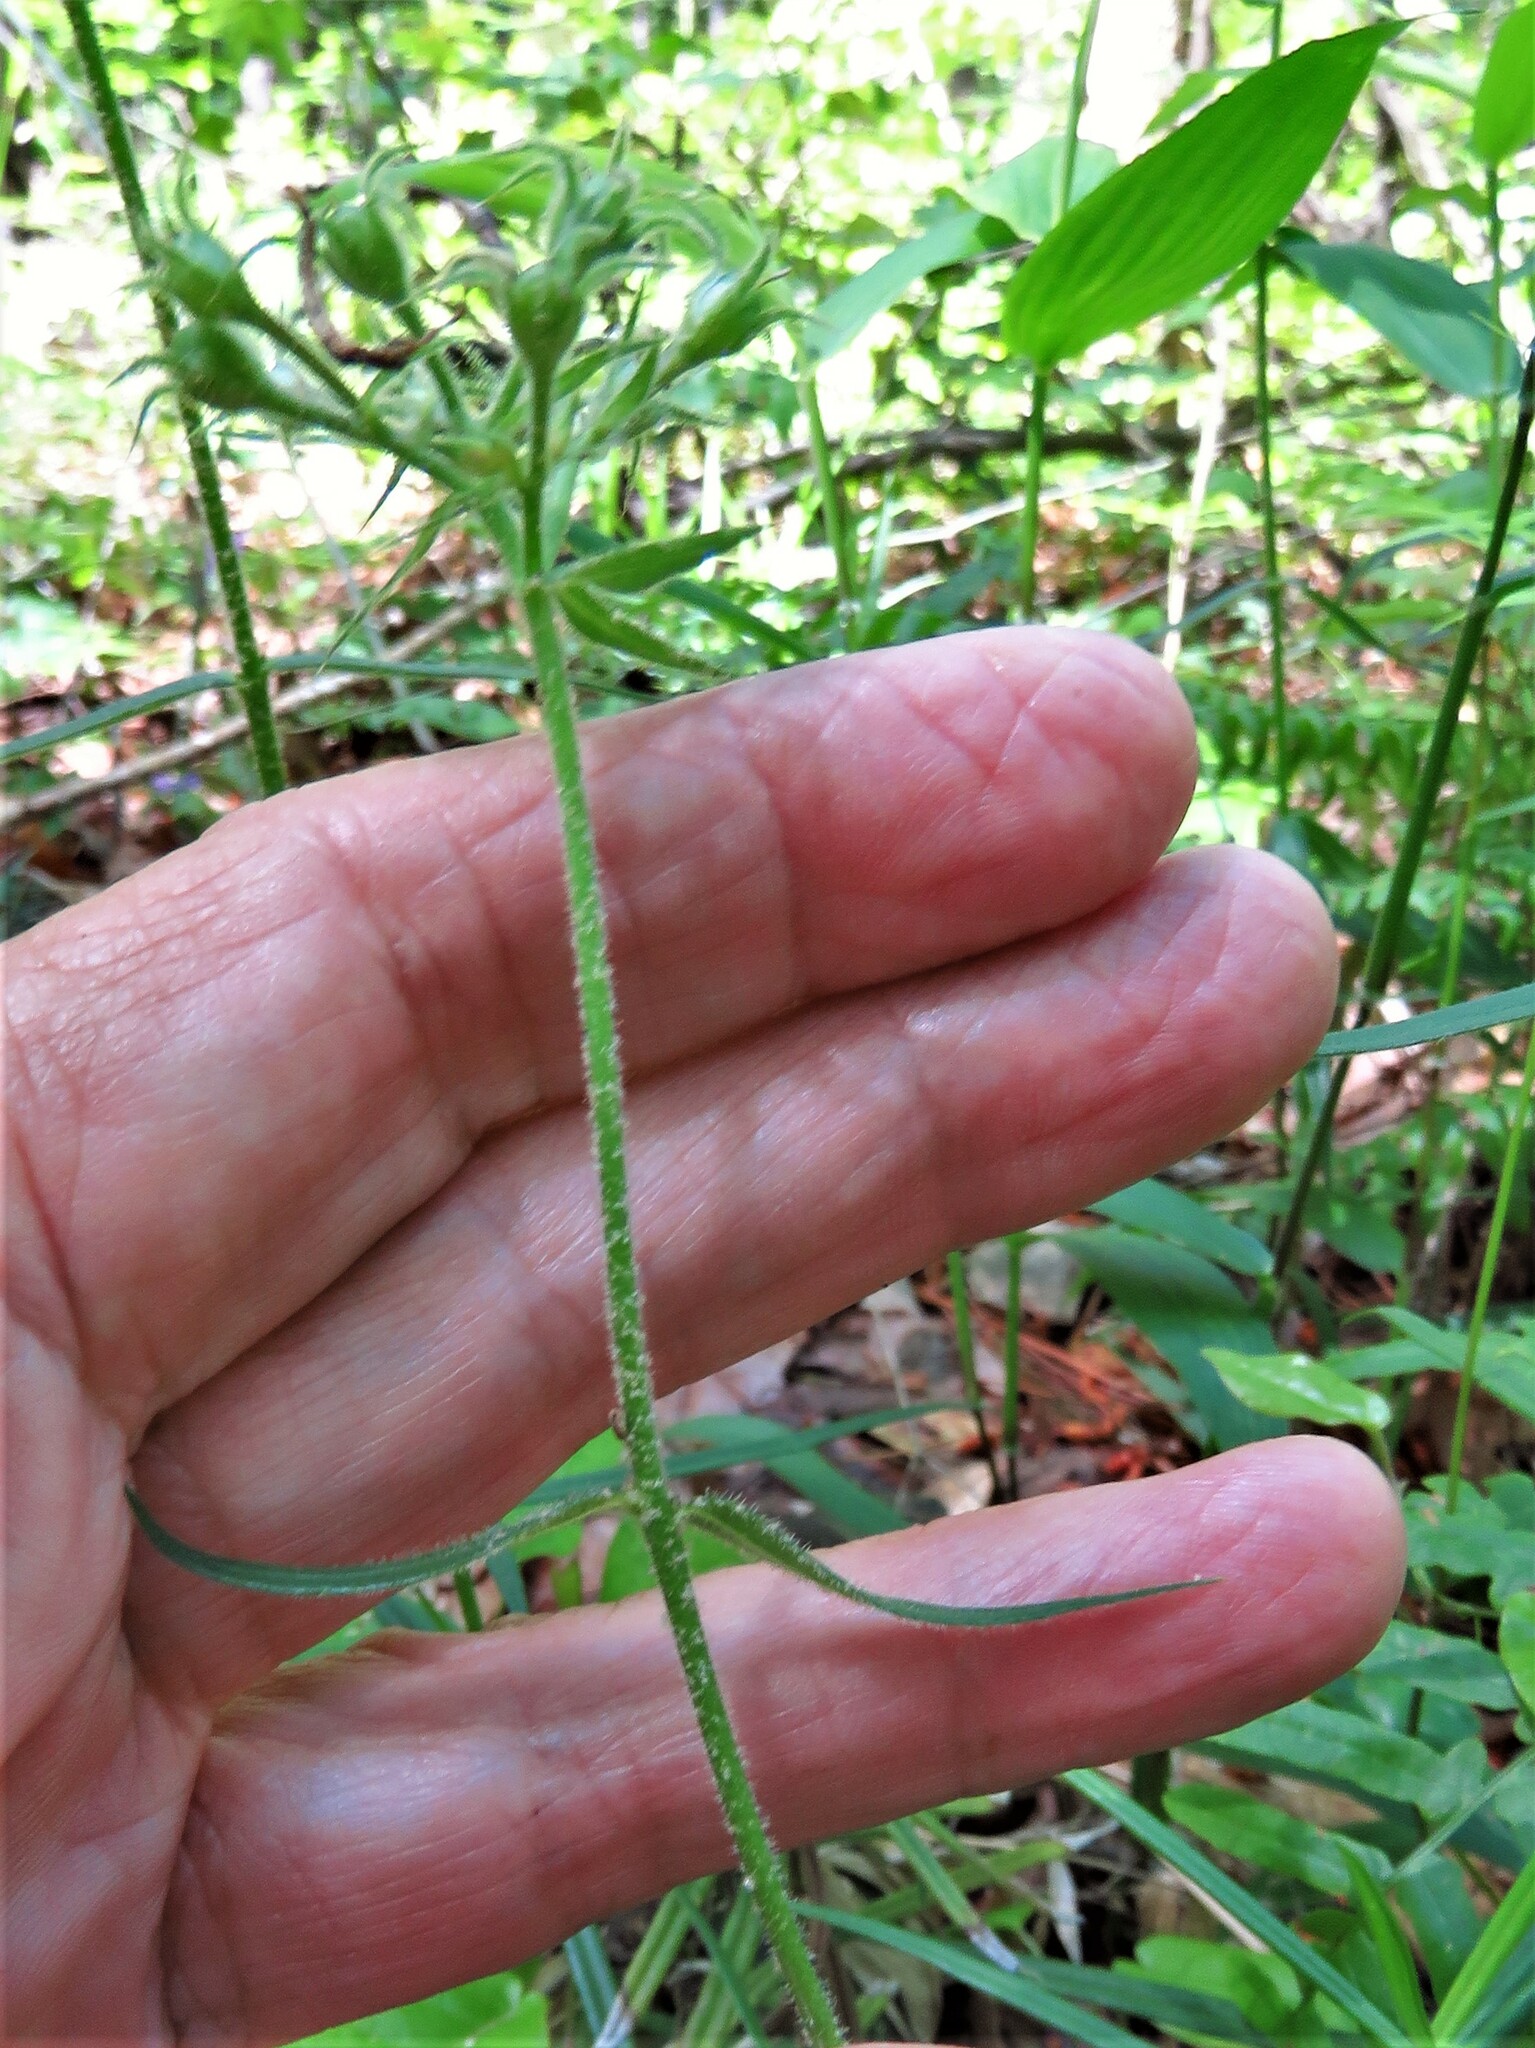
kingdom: Plantae
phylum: Tracheophyta
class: Magnoliopsida
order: Ericales
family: Polemoniaceae
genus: Phlox
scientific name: Phlox pilosa
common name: Prairie phlox
